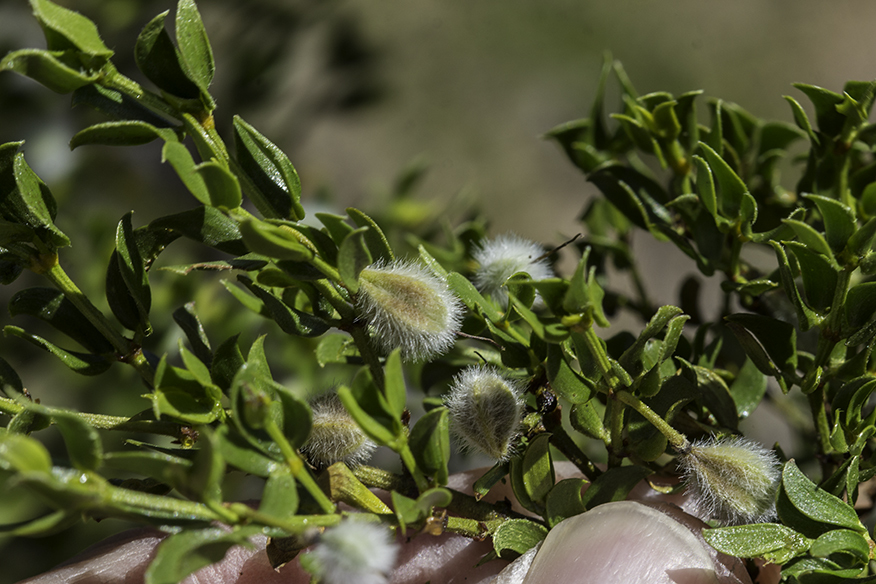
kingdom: Plantae
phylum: Tracheophyta
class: Magnoliopsida
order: Zygophyllales
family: Zygophyllaceae
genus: Larrea
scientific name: Larrea tridentata
